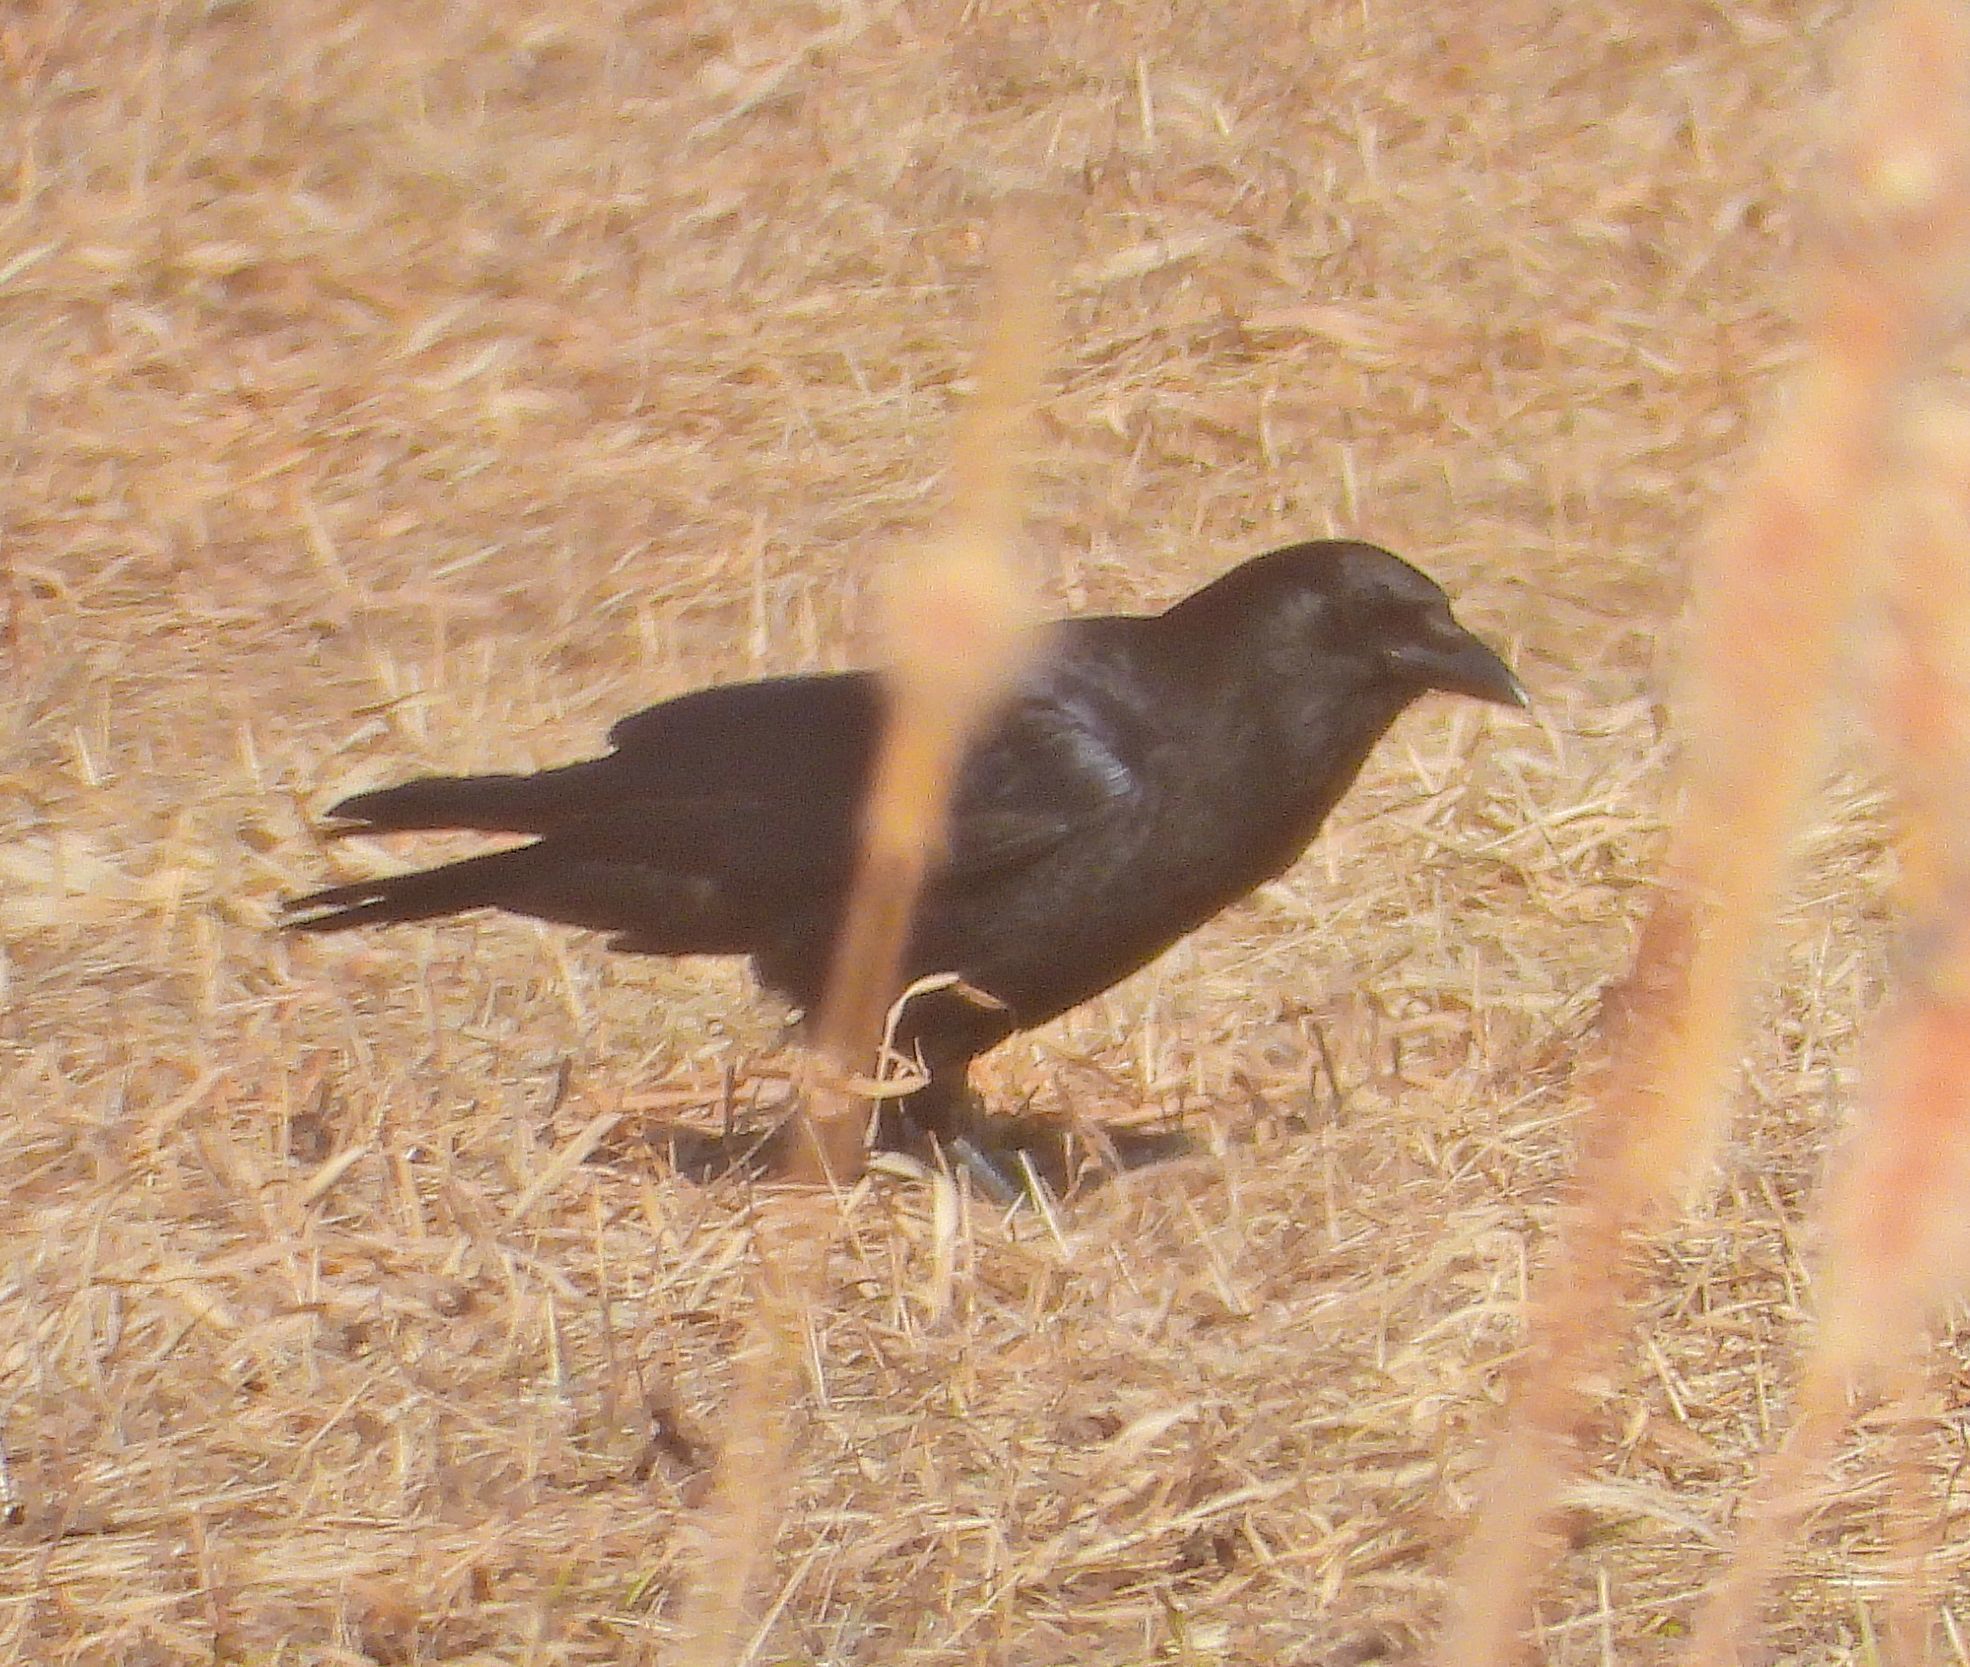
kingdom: Animalia
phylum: Chordata
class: Aves
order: Passeriformes
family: Corvidae
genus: Corvus
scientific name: Corvus corax
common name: Common raven
